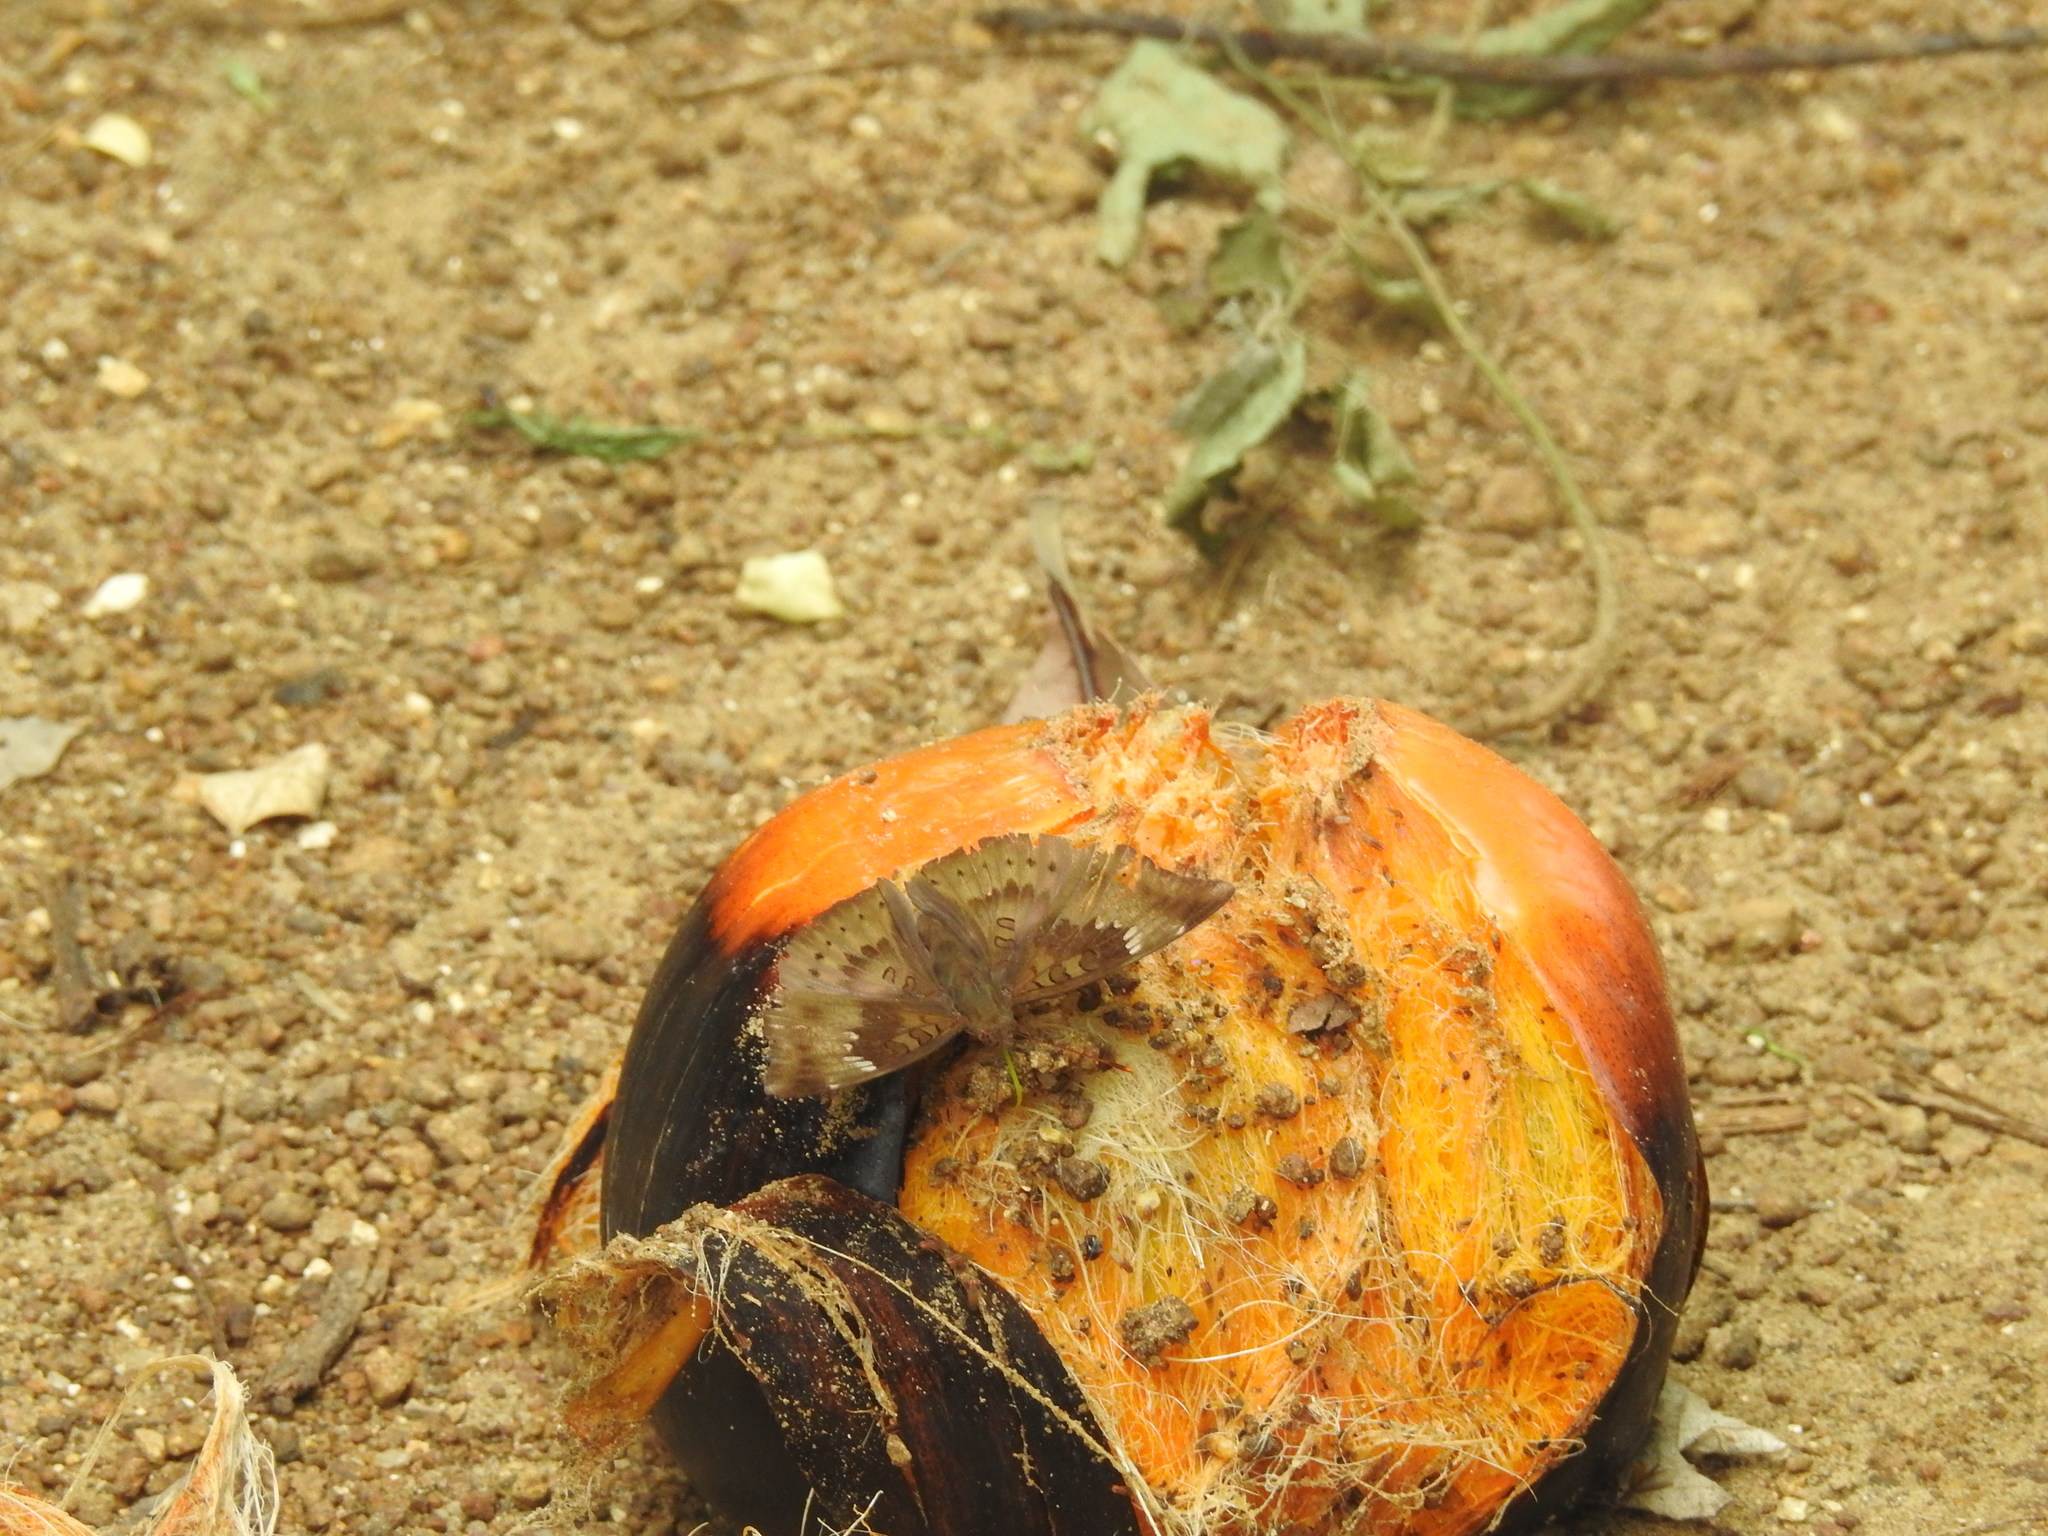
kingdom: Animalia
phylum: Arthropoda
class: Insecta
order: Lepidoptera
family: Nymphalidae
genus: Euthalia
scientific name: Euthalia aconthea
